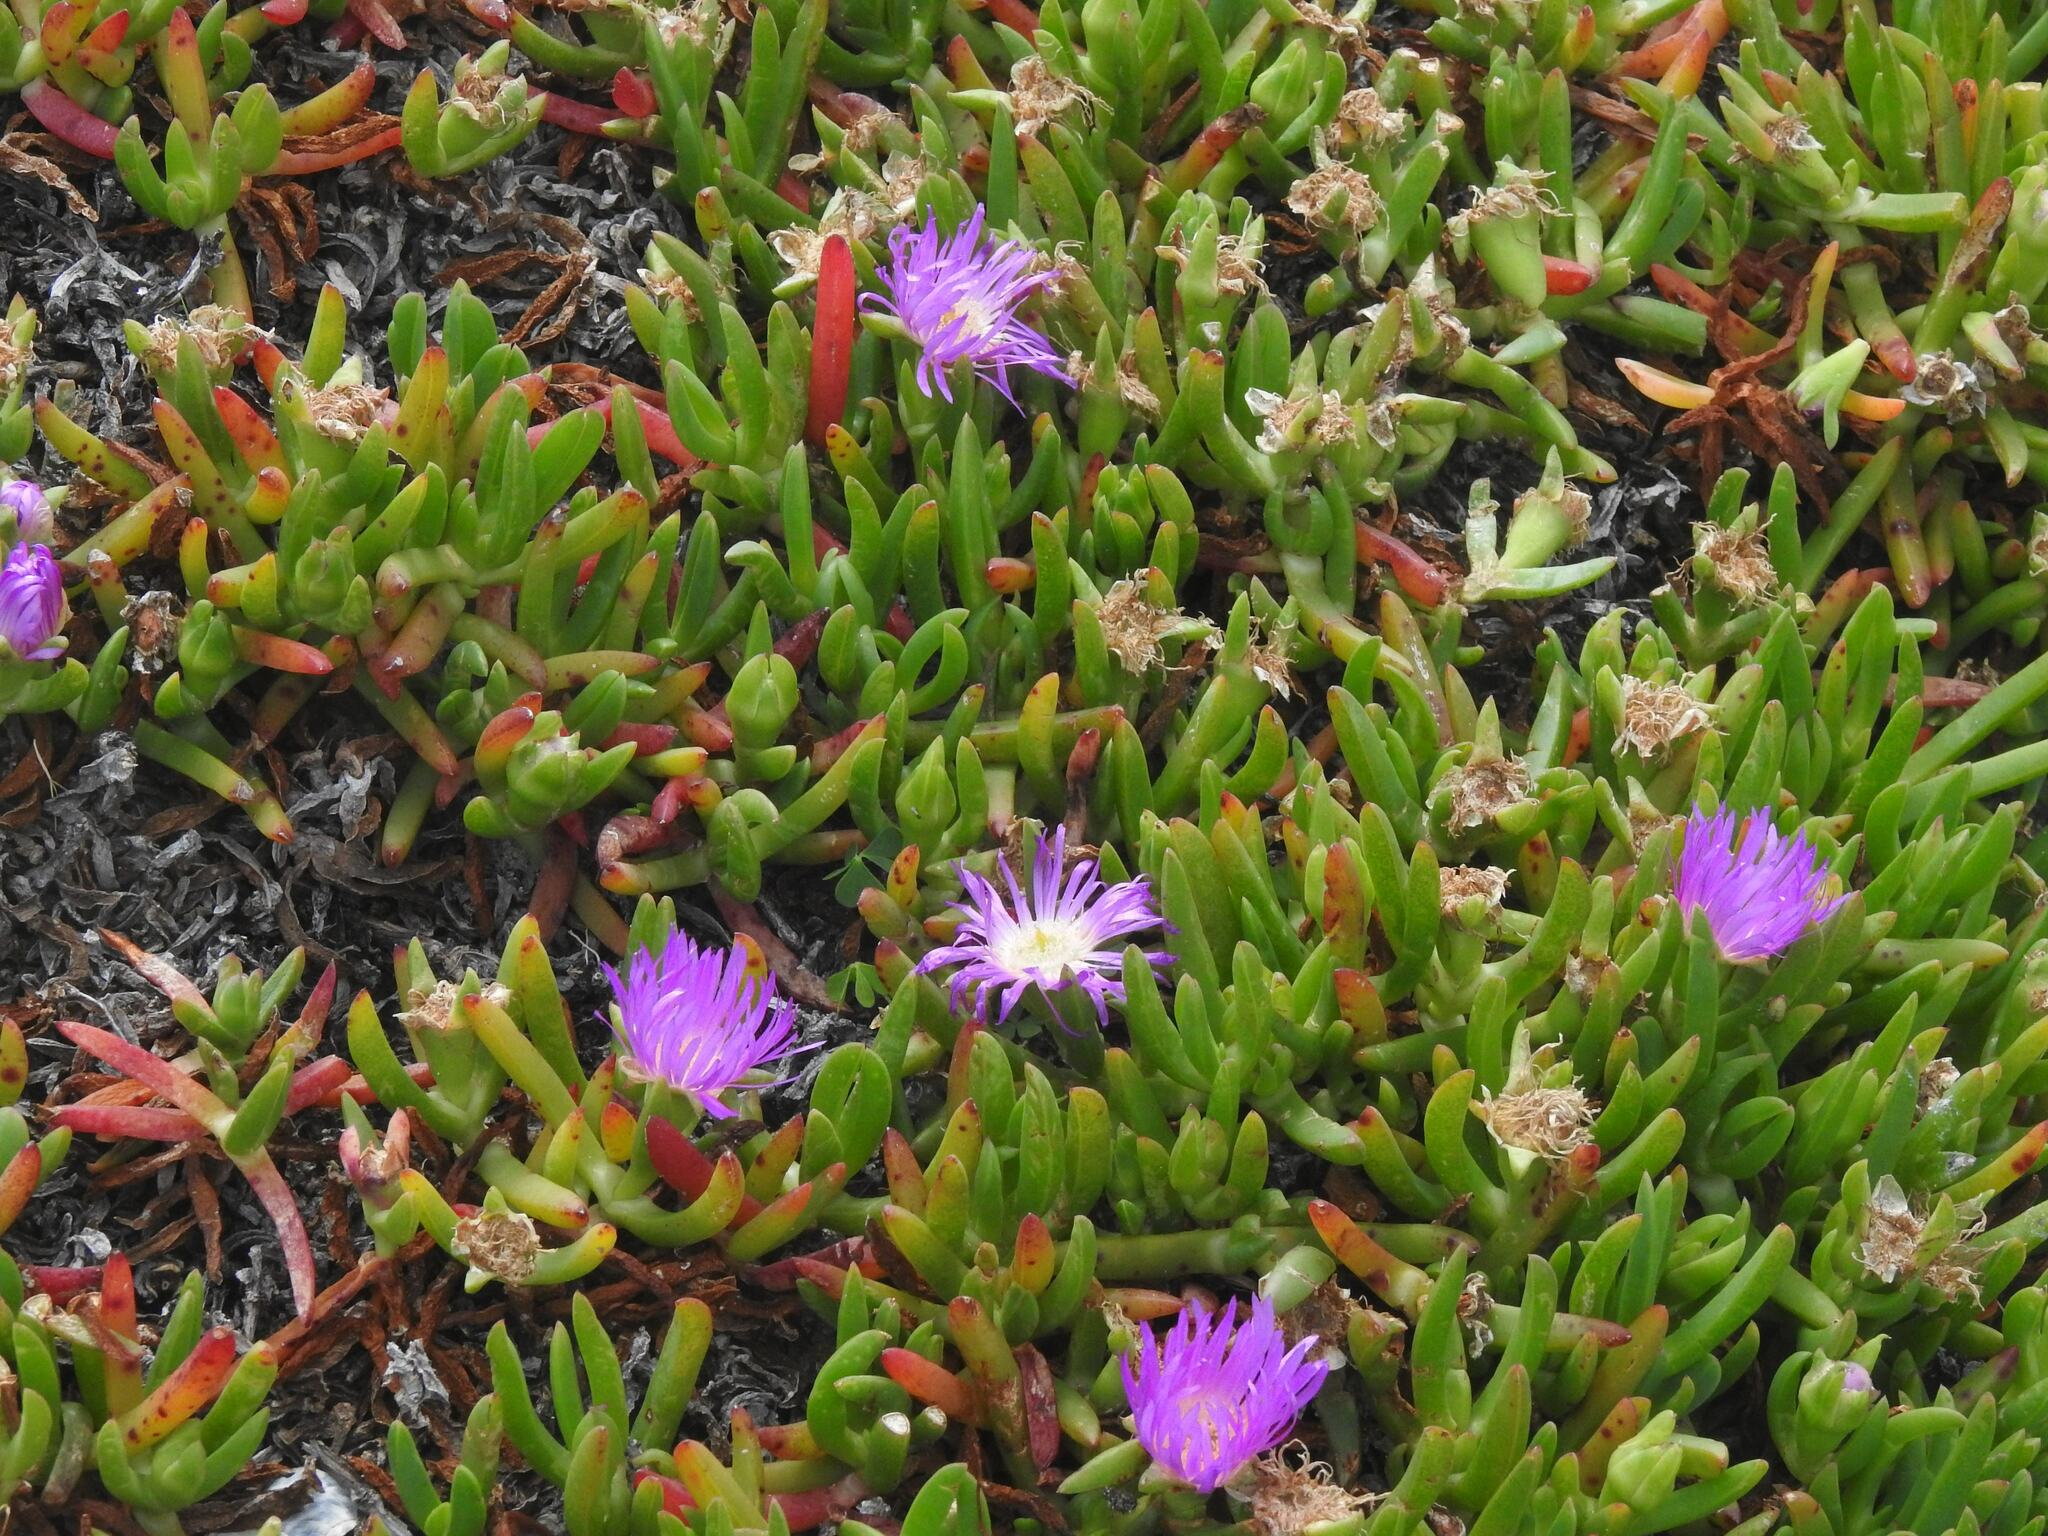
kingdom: Plantae
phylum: Tracheophyta
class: Magnoliopsida
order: Caryophyllales
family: Aizoaceae
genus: Carpobrotus
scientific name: Carpobrotus rossii
